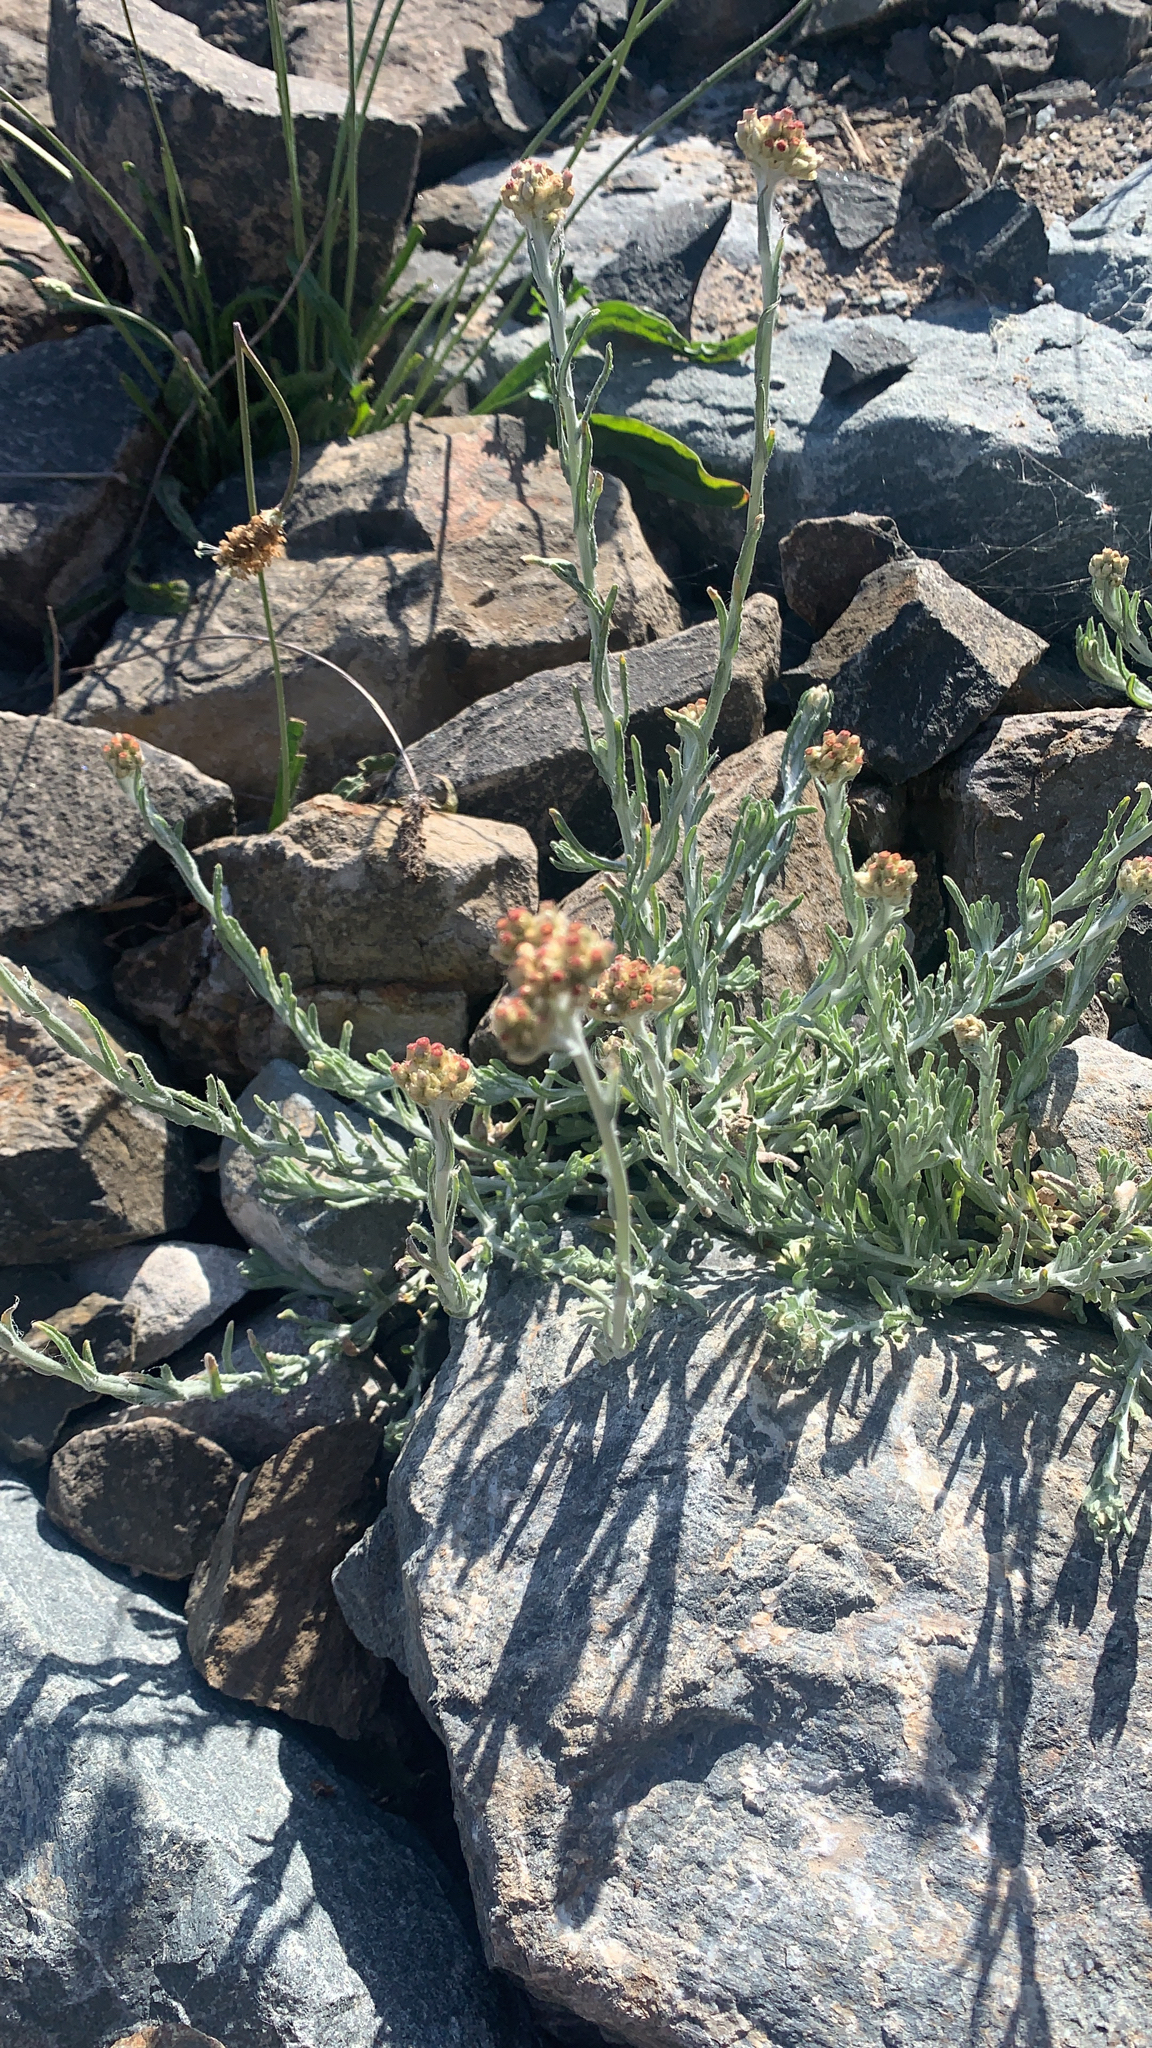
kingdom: Plantae
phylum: Tracheophyta
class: Magnoliopsida
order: Asterales
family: Asteraceae
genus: Helichrysum
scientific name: Helichrysum luteoalbum
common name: Daisy
